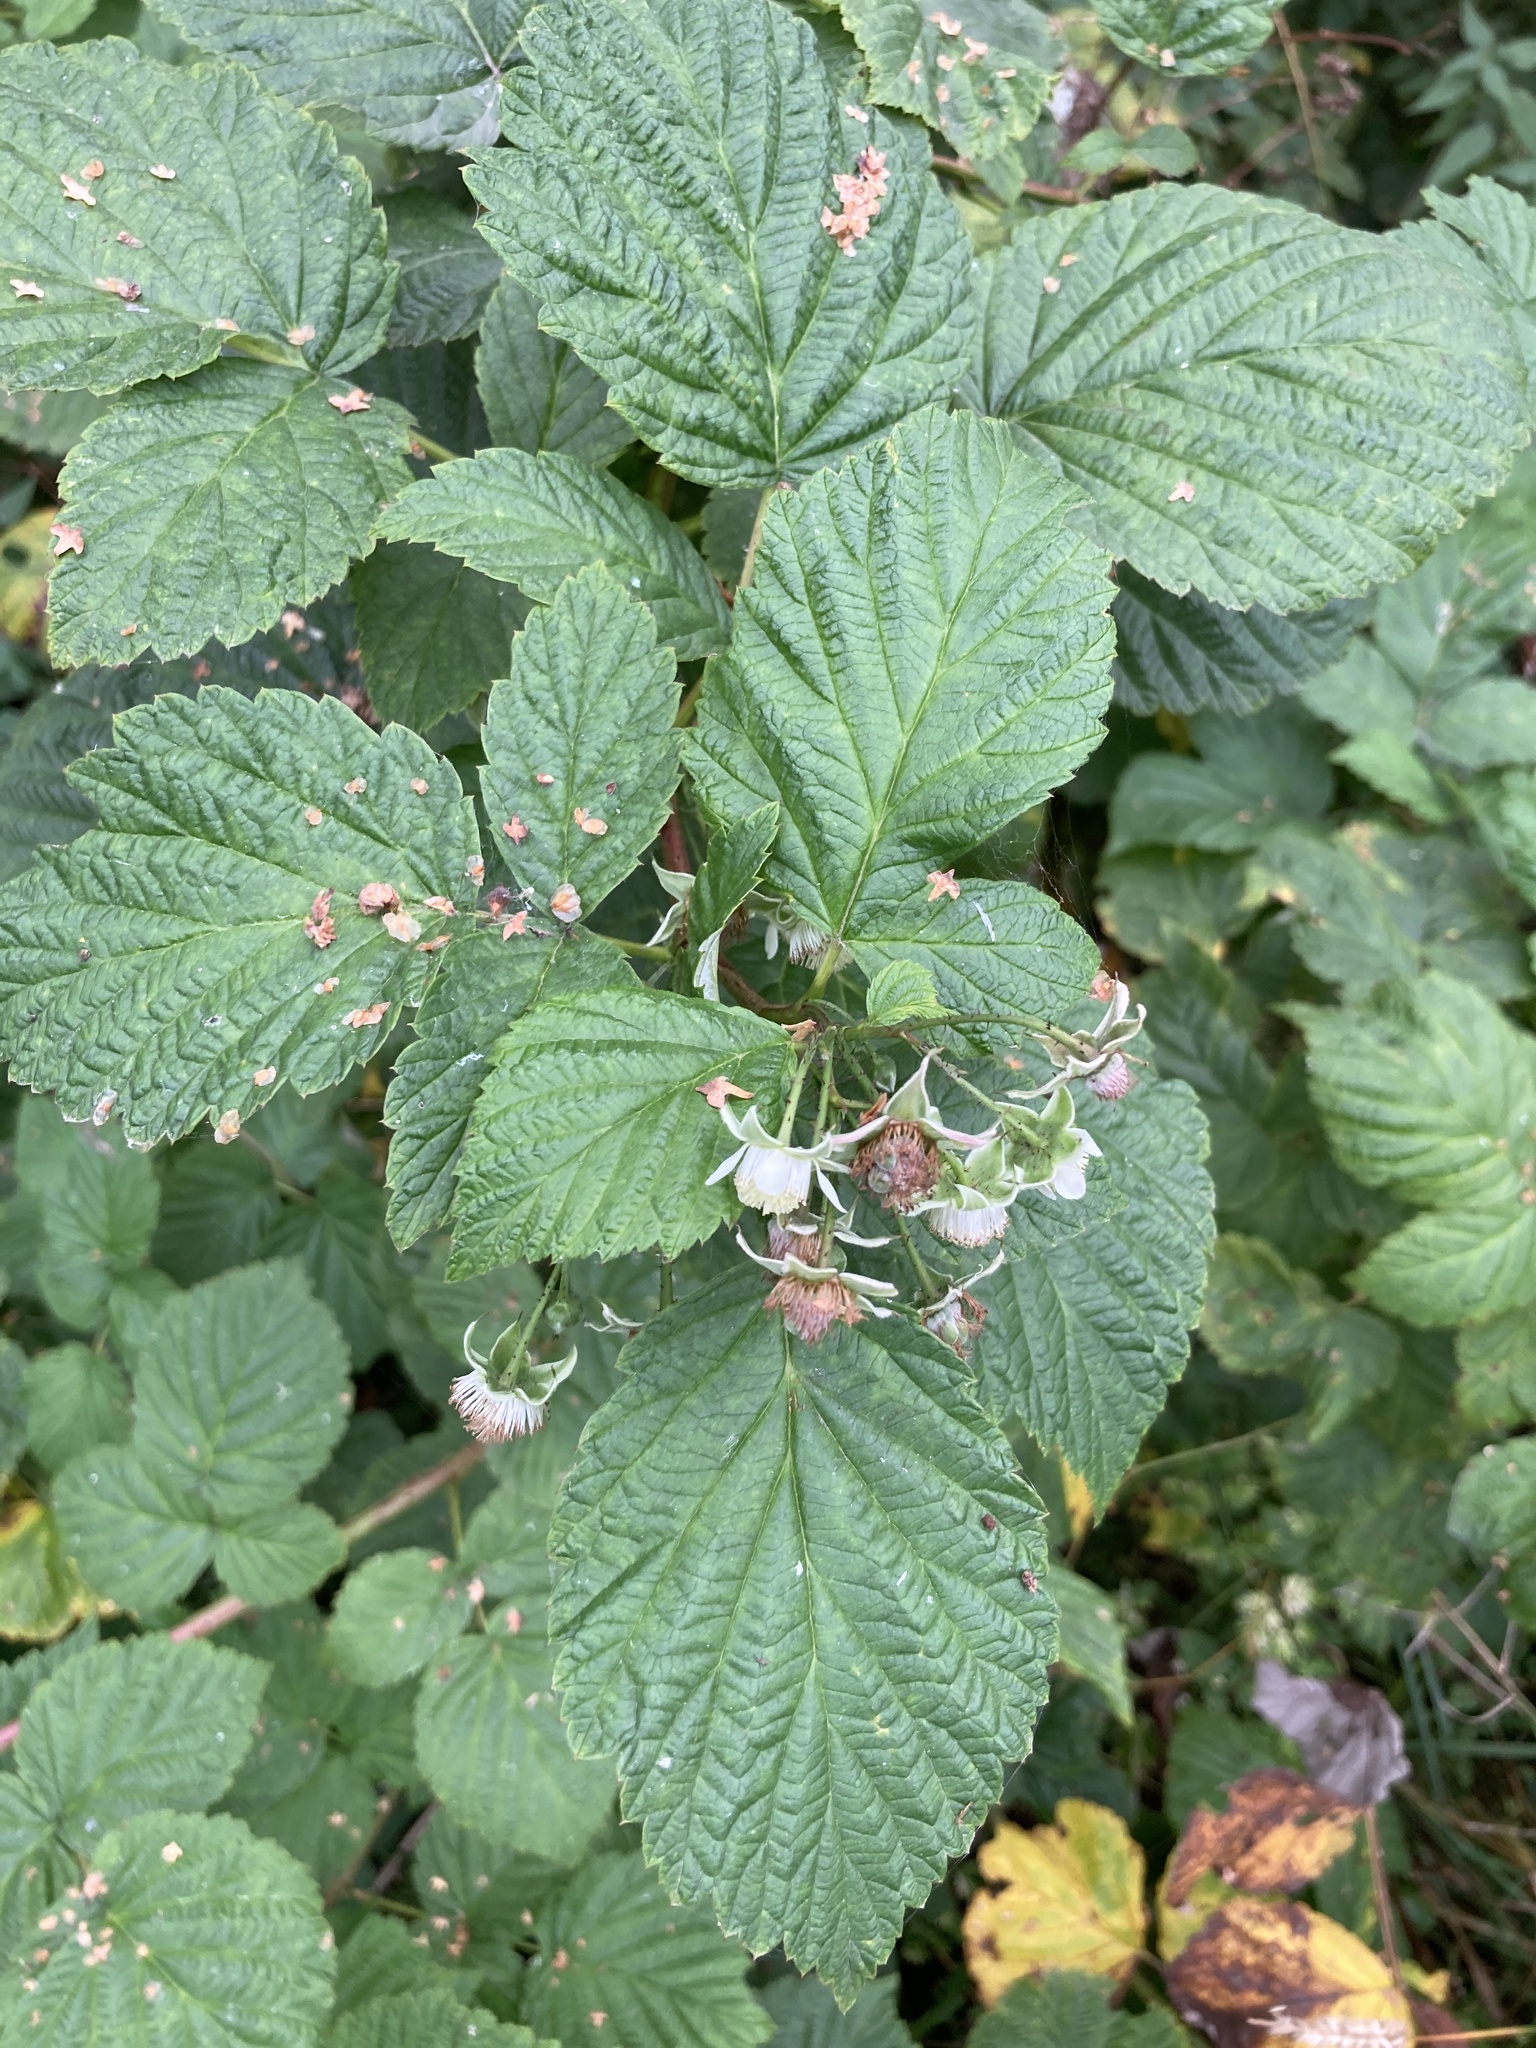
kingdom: Plantae
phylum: Tracheophyta
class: Magnoliopsida
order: Rosales
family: Rosaceae
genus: Rubus
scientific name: Rubus idaeus
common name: Raspberry
